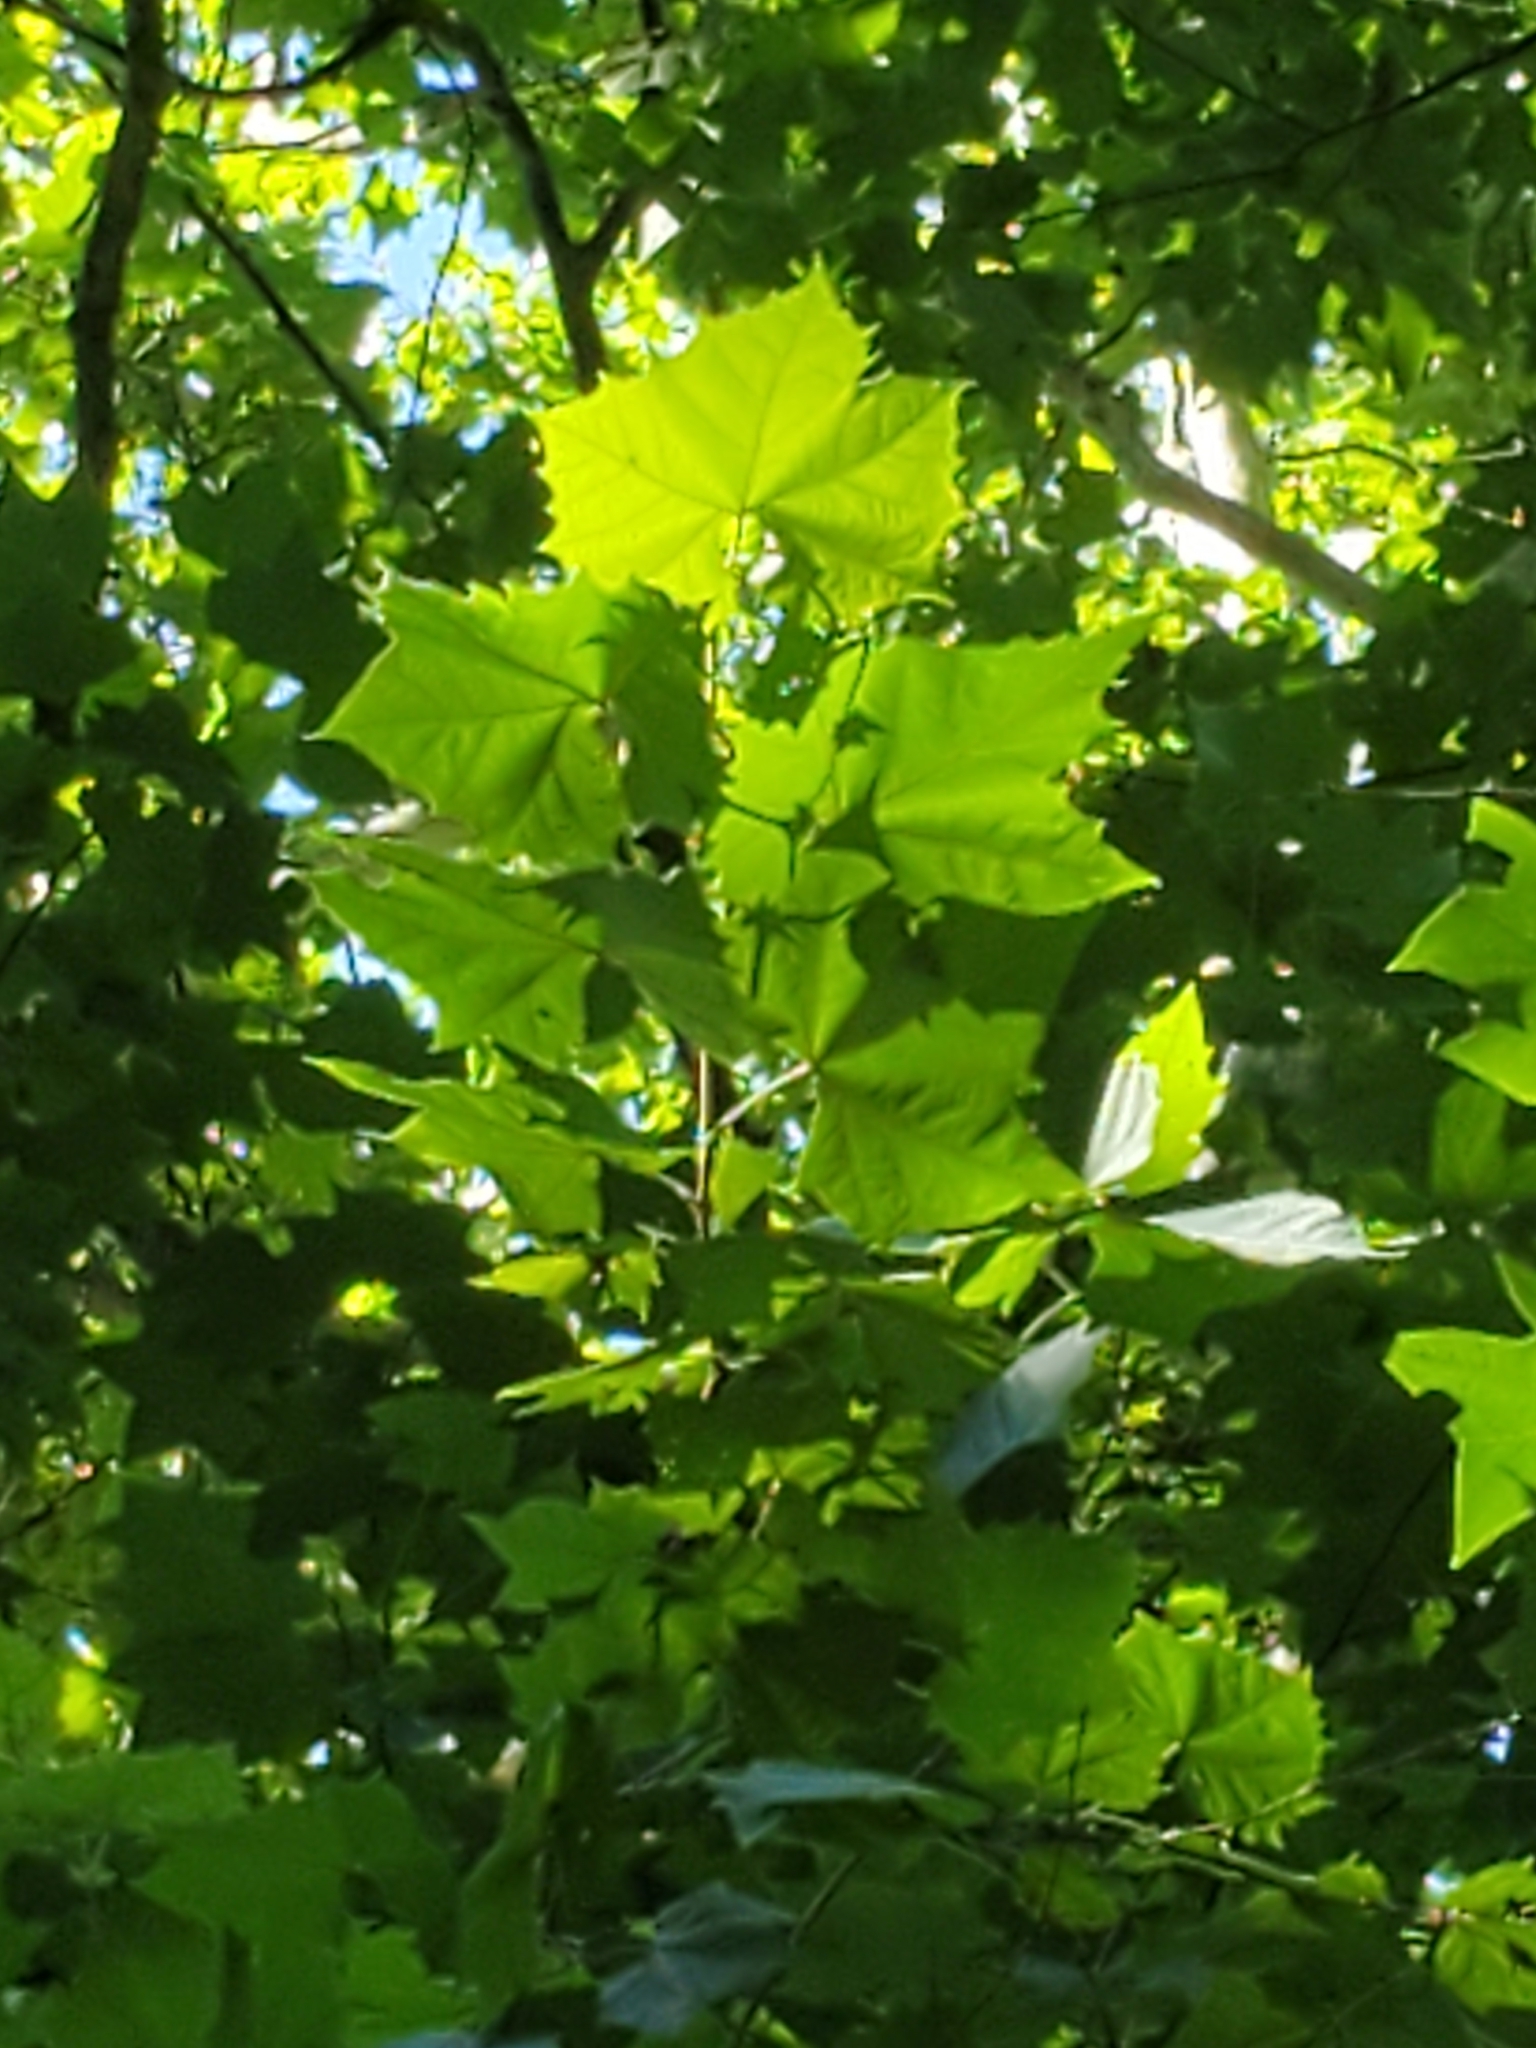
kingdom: Plantae
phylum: Tracheophyta
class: Magnoliopsida
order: Proteales
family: Platanaceae
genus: Platanus
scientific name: Platanus occidentalis
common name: American sycamore
